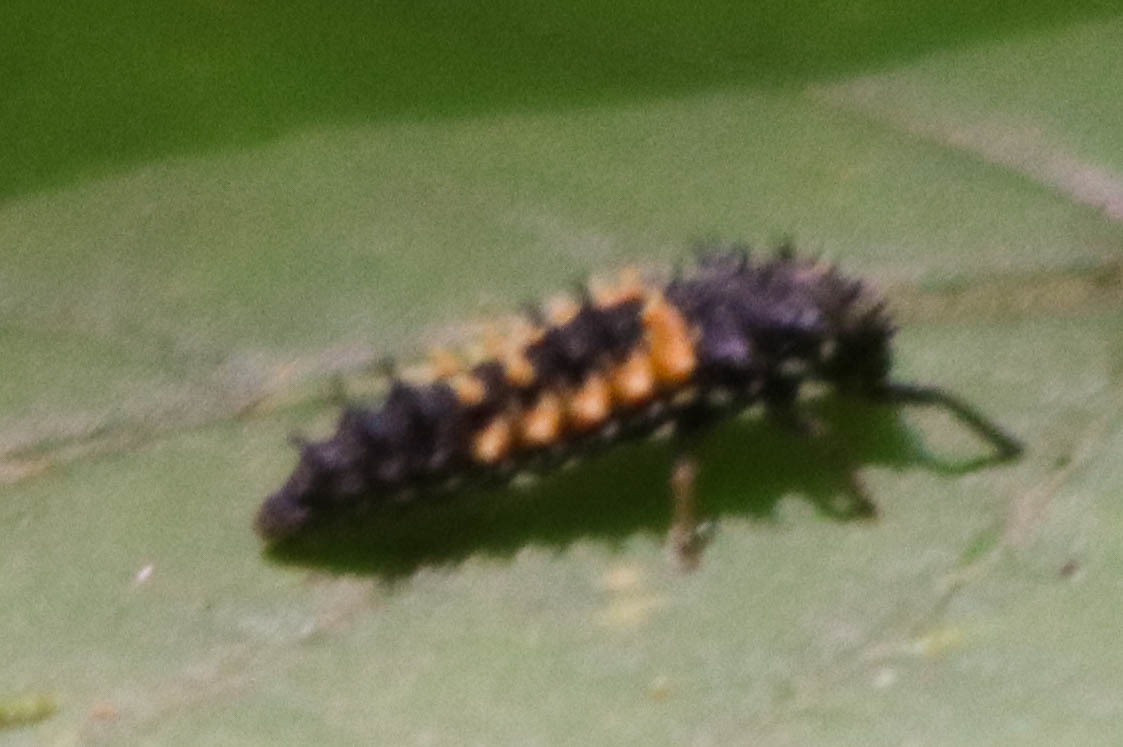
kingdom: Animalia
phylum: Arthropoda
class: Insecta
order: Coleoptera
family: Coccinellidae
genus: Harmonia
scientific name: Harmonia axyridis
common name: Harlequin ladybird
